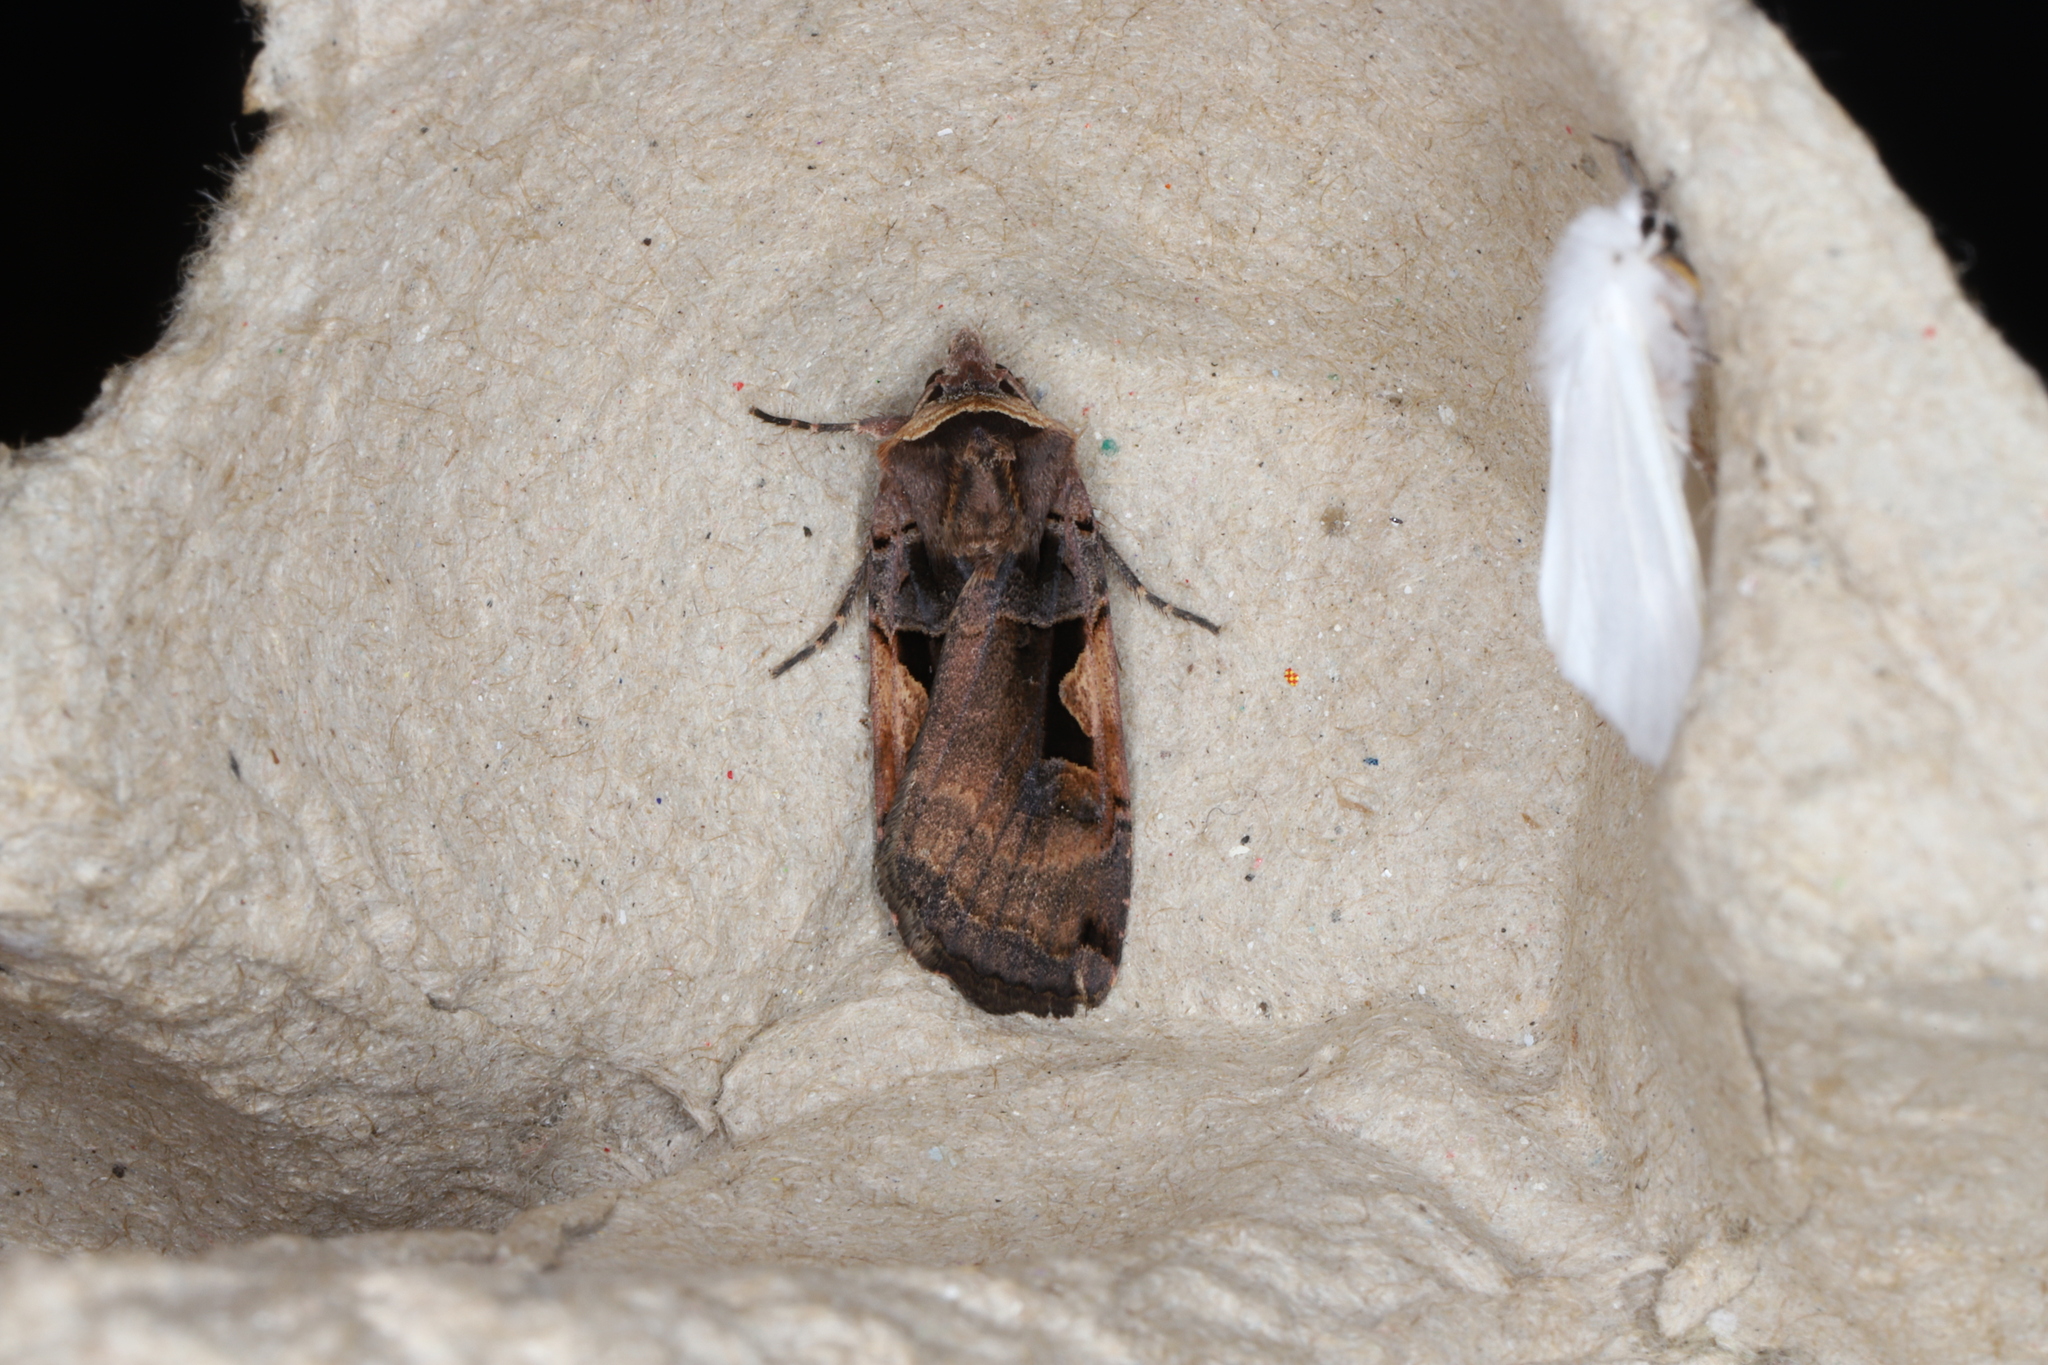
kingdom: Animalia
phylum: Arthropoda
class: Insecta
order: Lepidoptera
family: Noctuidae
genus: Xestia
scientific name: Xestia
